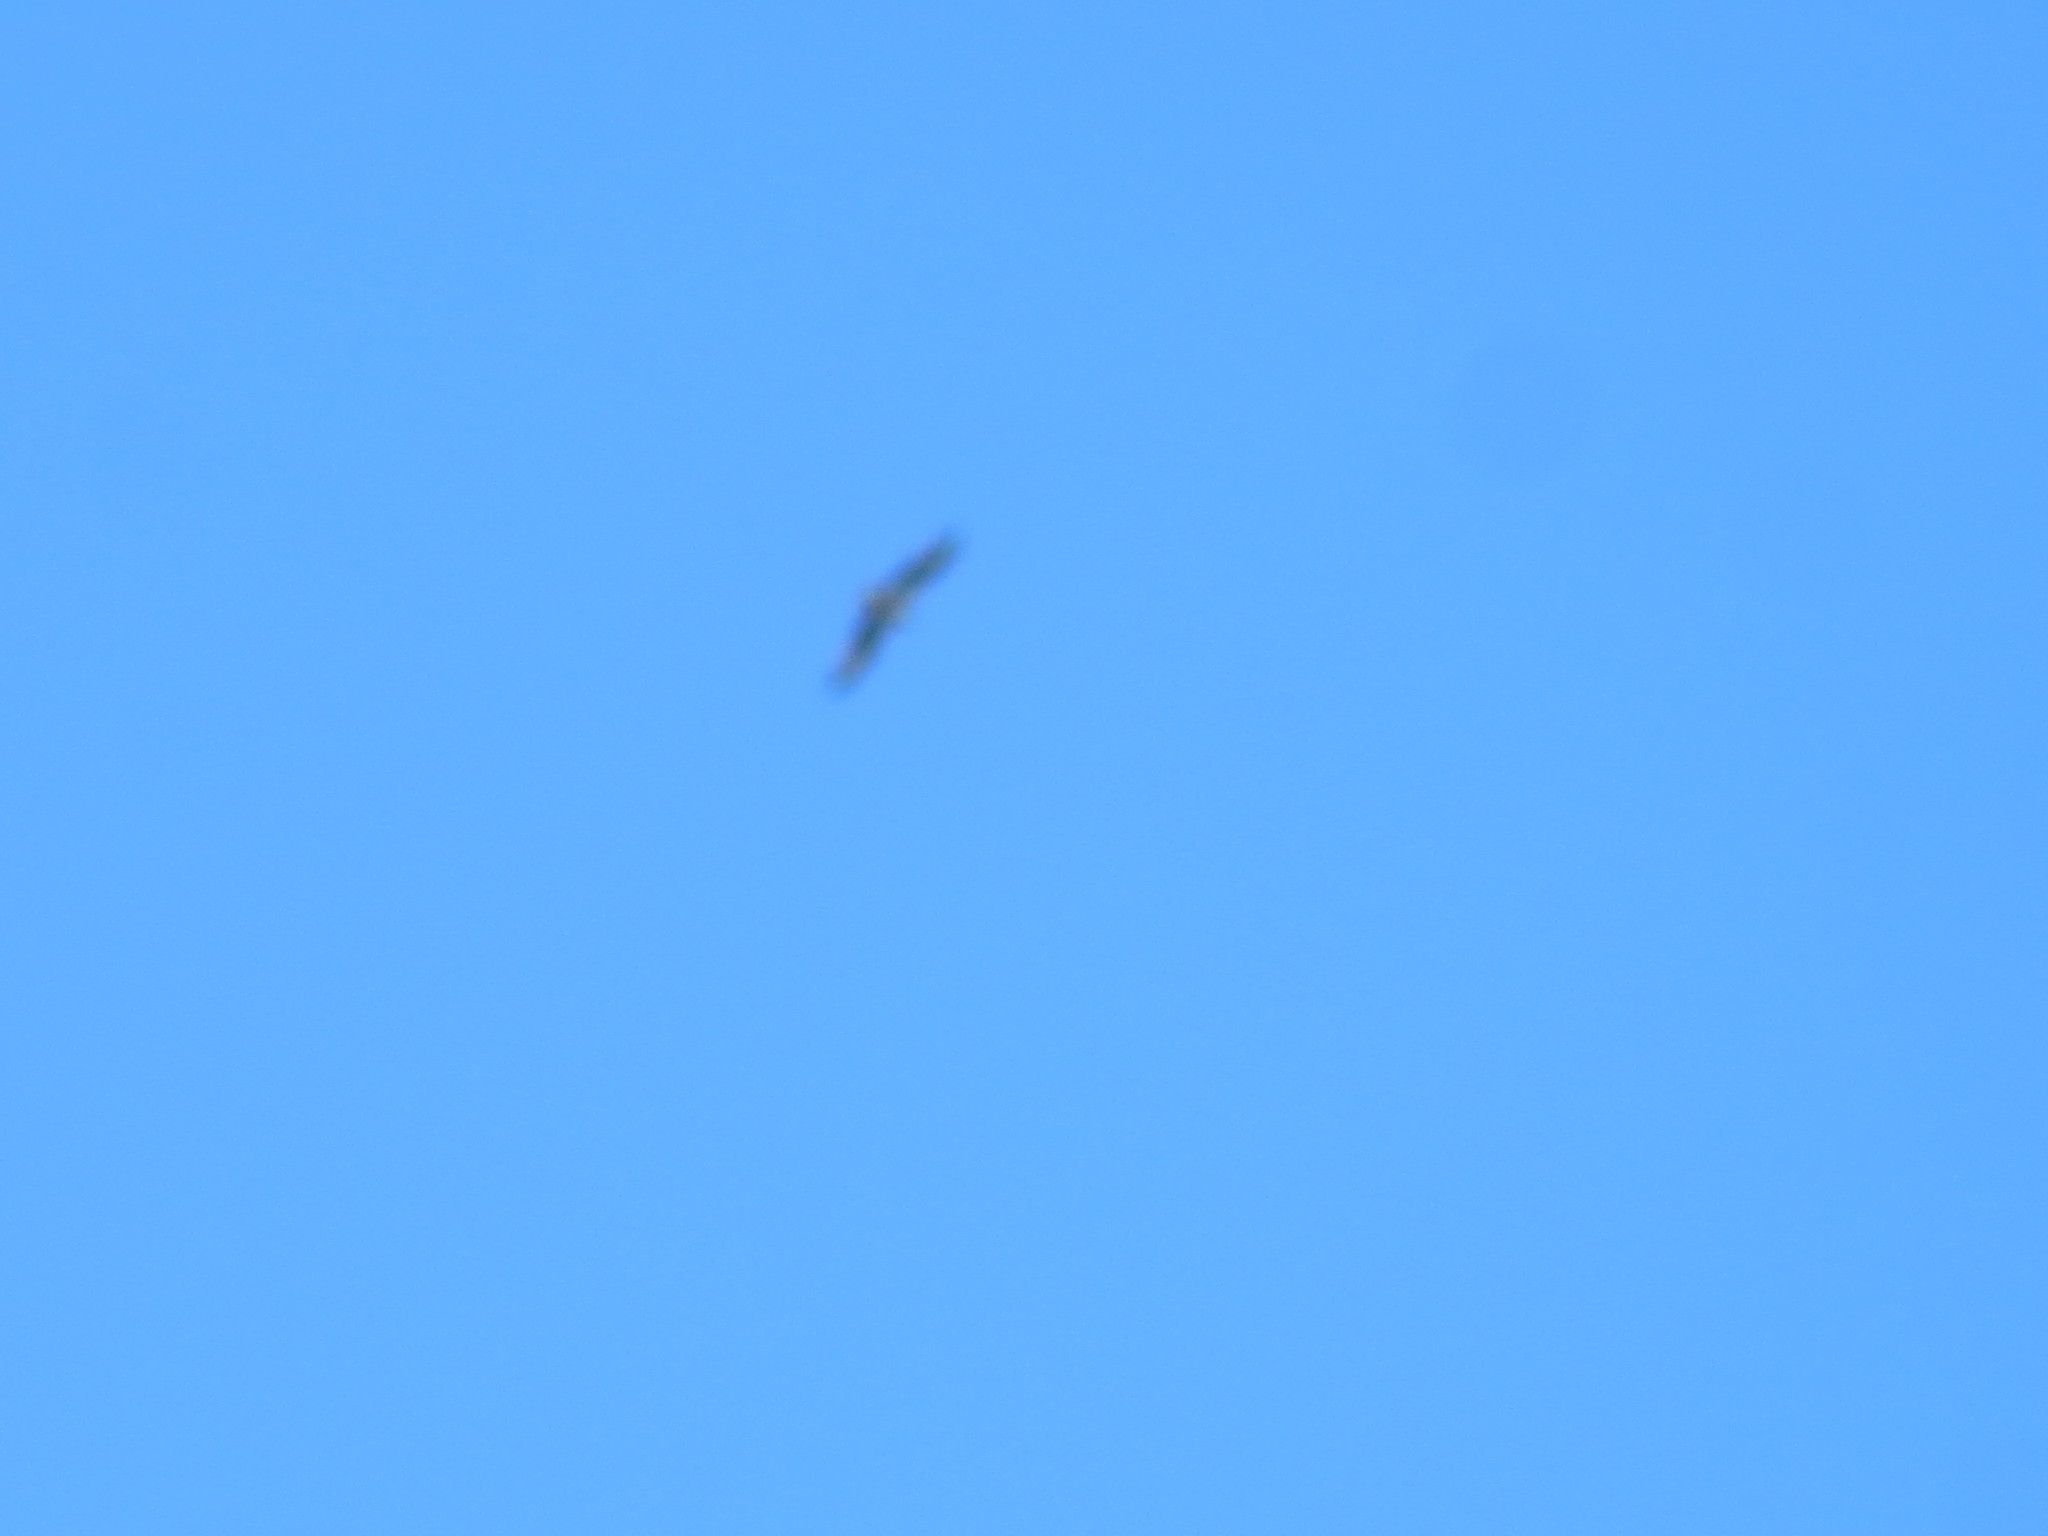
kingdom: Animalia
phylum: Chordata
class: Aves
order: Accipitriformes
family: Pandionidae
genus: Pandion
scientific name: Pandion haliaetus
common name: Osprey
